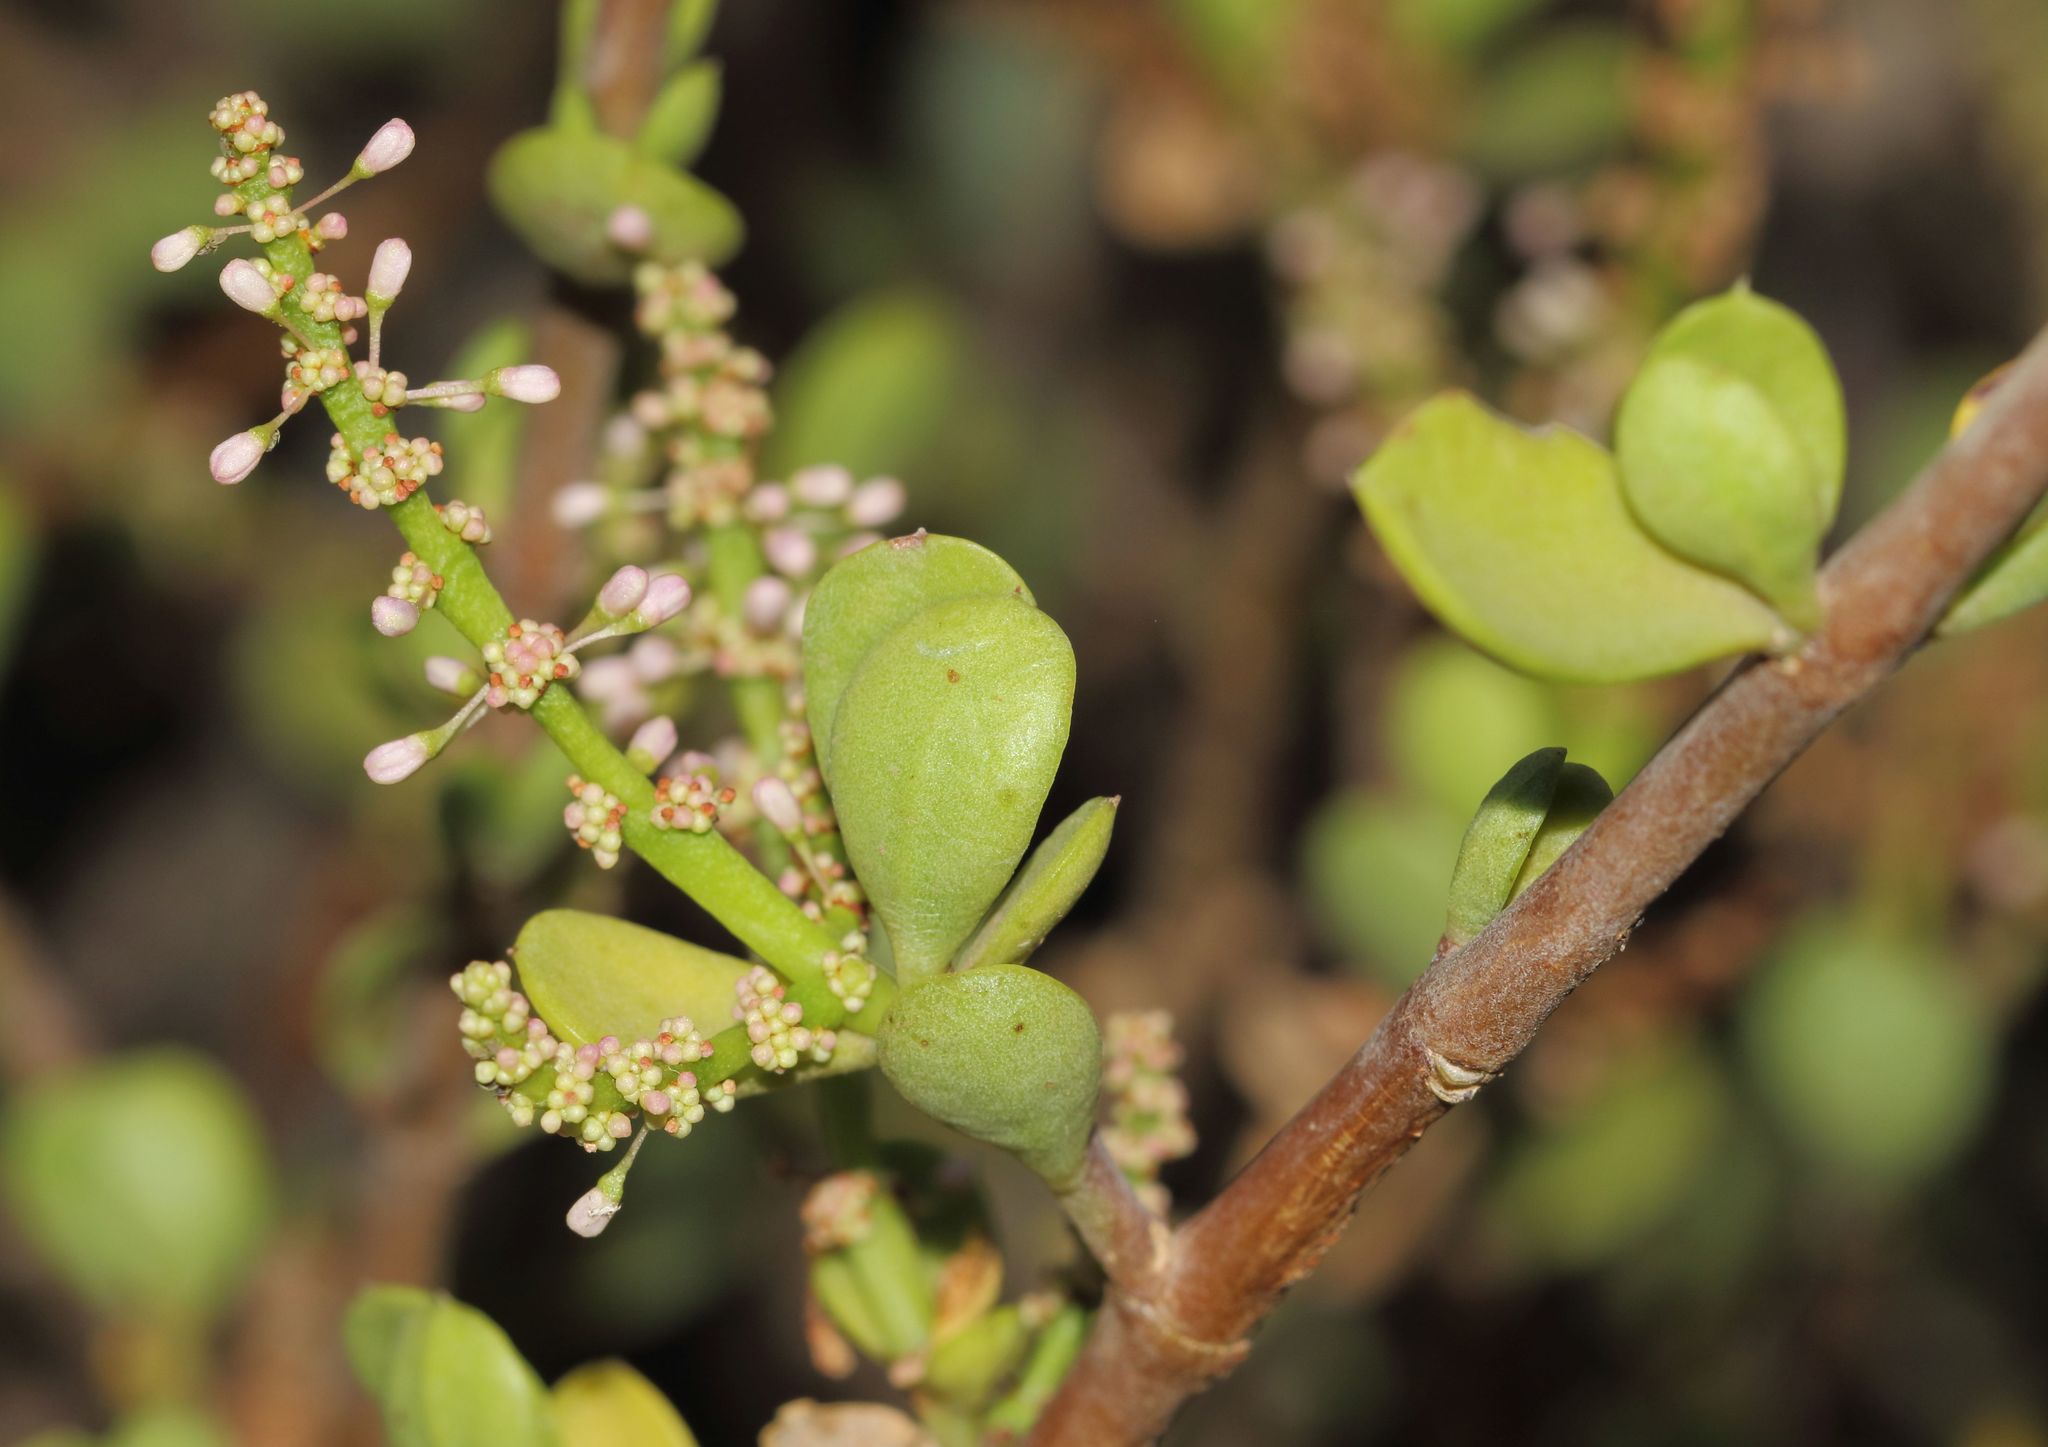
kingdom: Plantae
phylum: Tracheophyta
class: Magnoliopsida
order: Caryophyllales
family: Didiereaceae
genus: Portulacaria
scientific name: Portulacaria afra
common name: Elephant-bush
